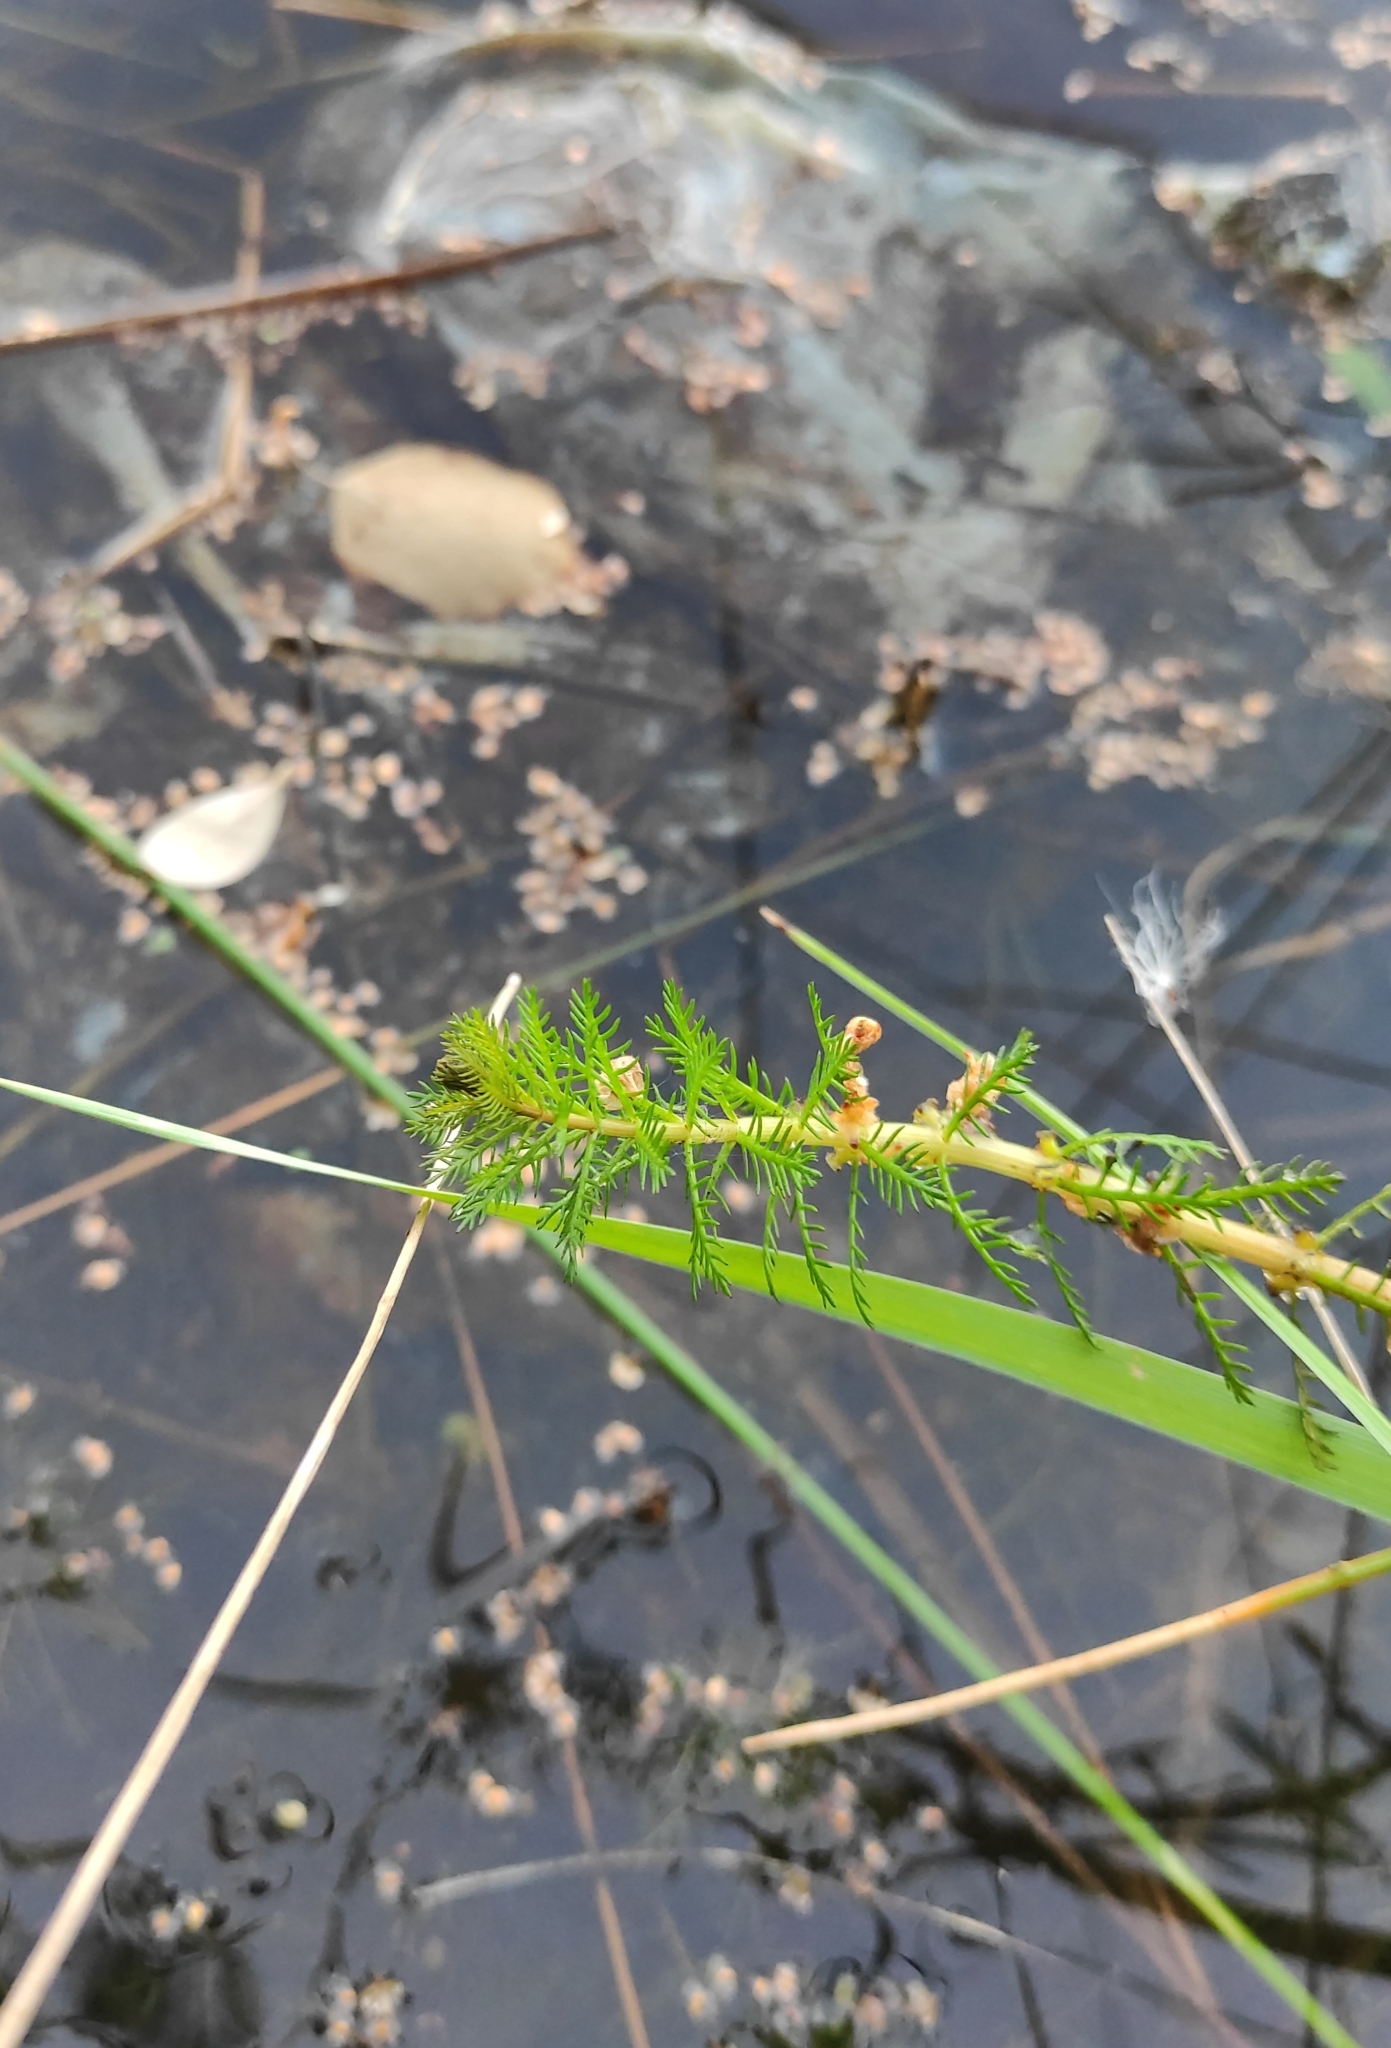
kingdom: Plantae
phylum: Tracheophyta
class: Magnoliopsida
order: Saxifragales
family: Haloragaceae
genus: Myriophyllum
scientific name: Myriophyllum verticillatum
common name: Whorled water-milfoil
